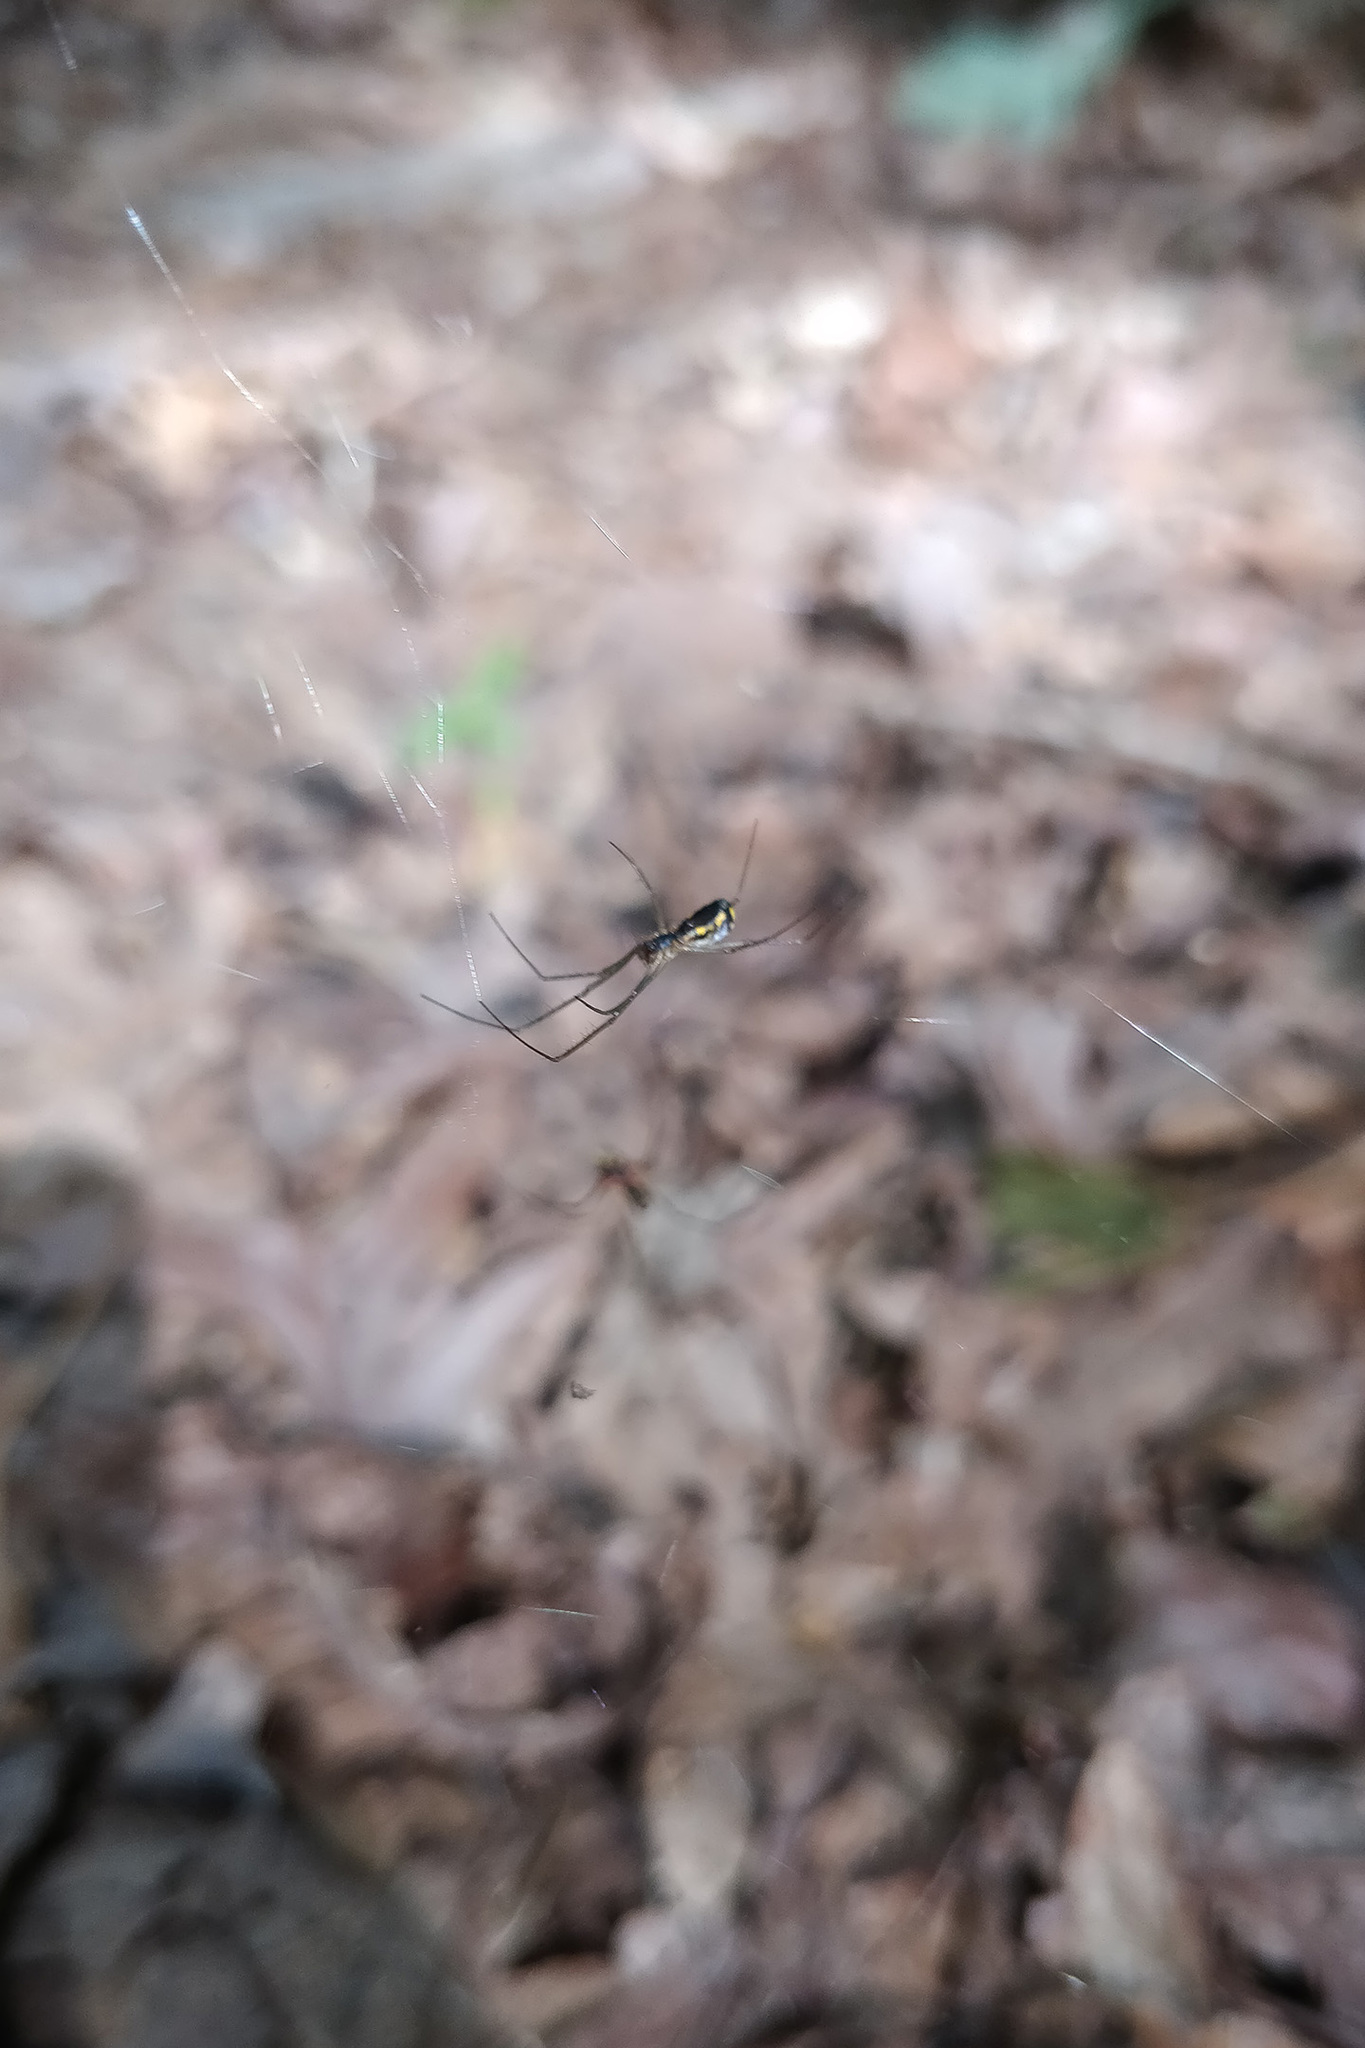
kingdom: Animalia
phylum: Arthropoda
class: Arachnida
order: Araneae
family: Linyphiidae
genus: Neriene
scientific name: Neriene radiata
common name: Filmy dome spider
